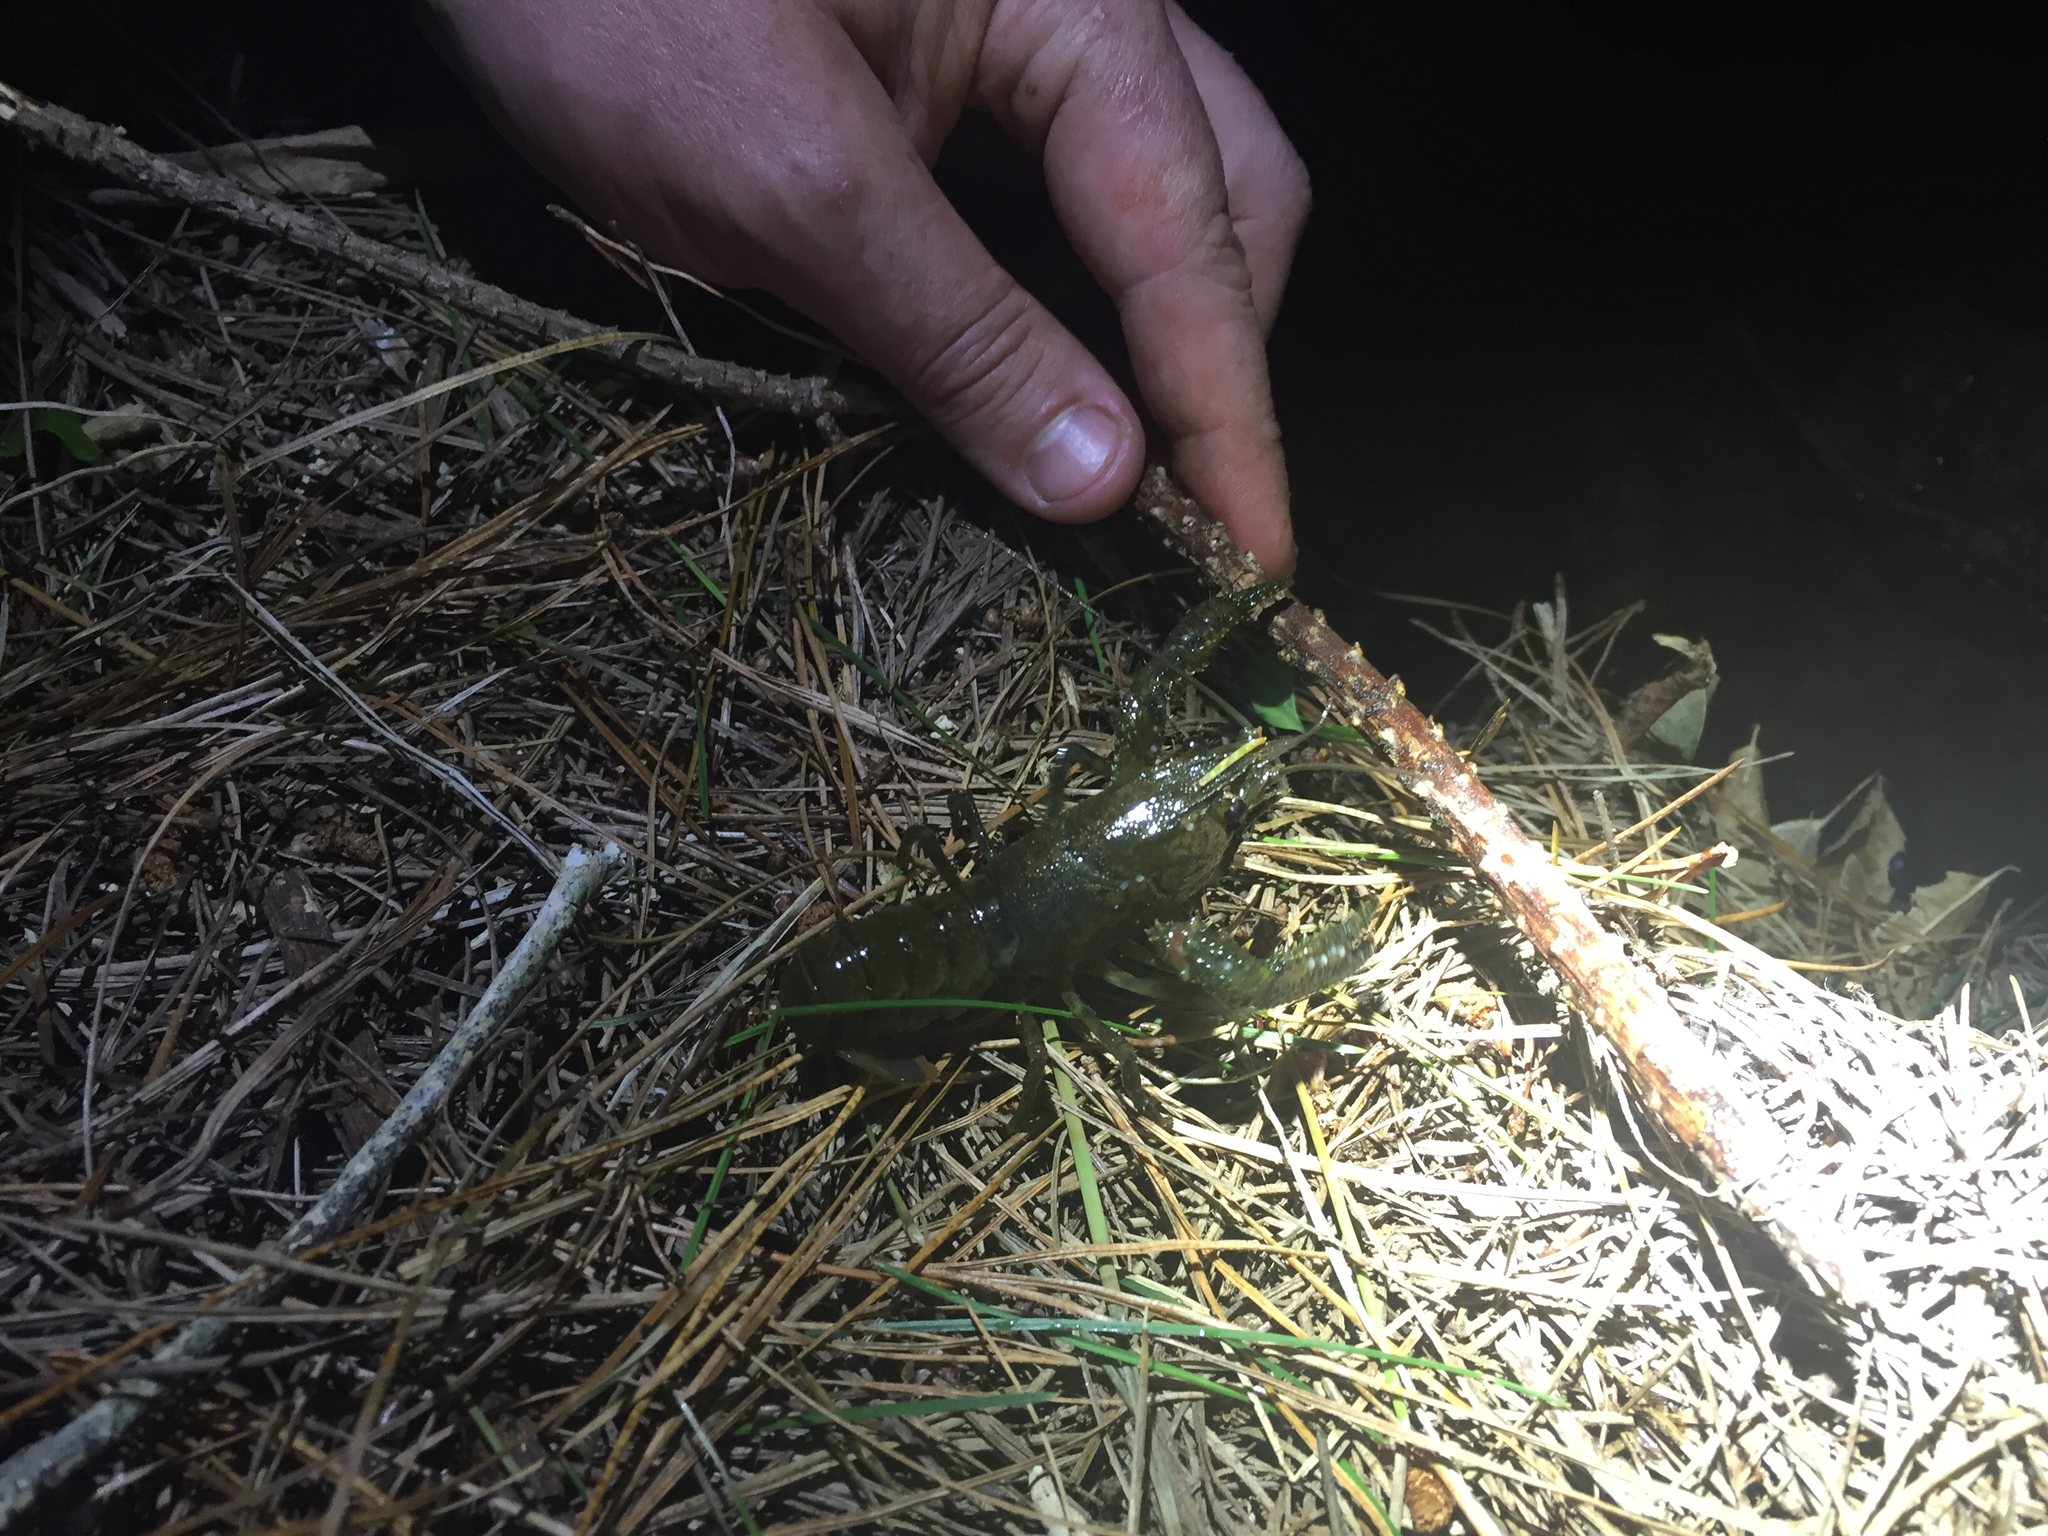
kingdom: Animalia
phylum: Arthropoda
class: Malacostraca
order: Decapoda
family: Parastacidae
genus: Paranephrops
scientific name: Paranephrops planifrons
